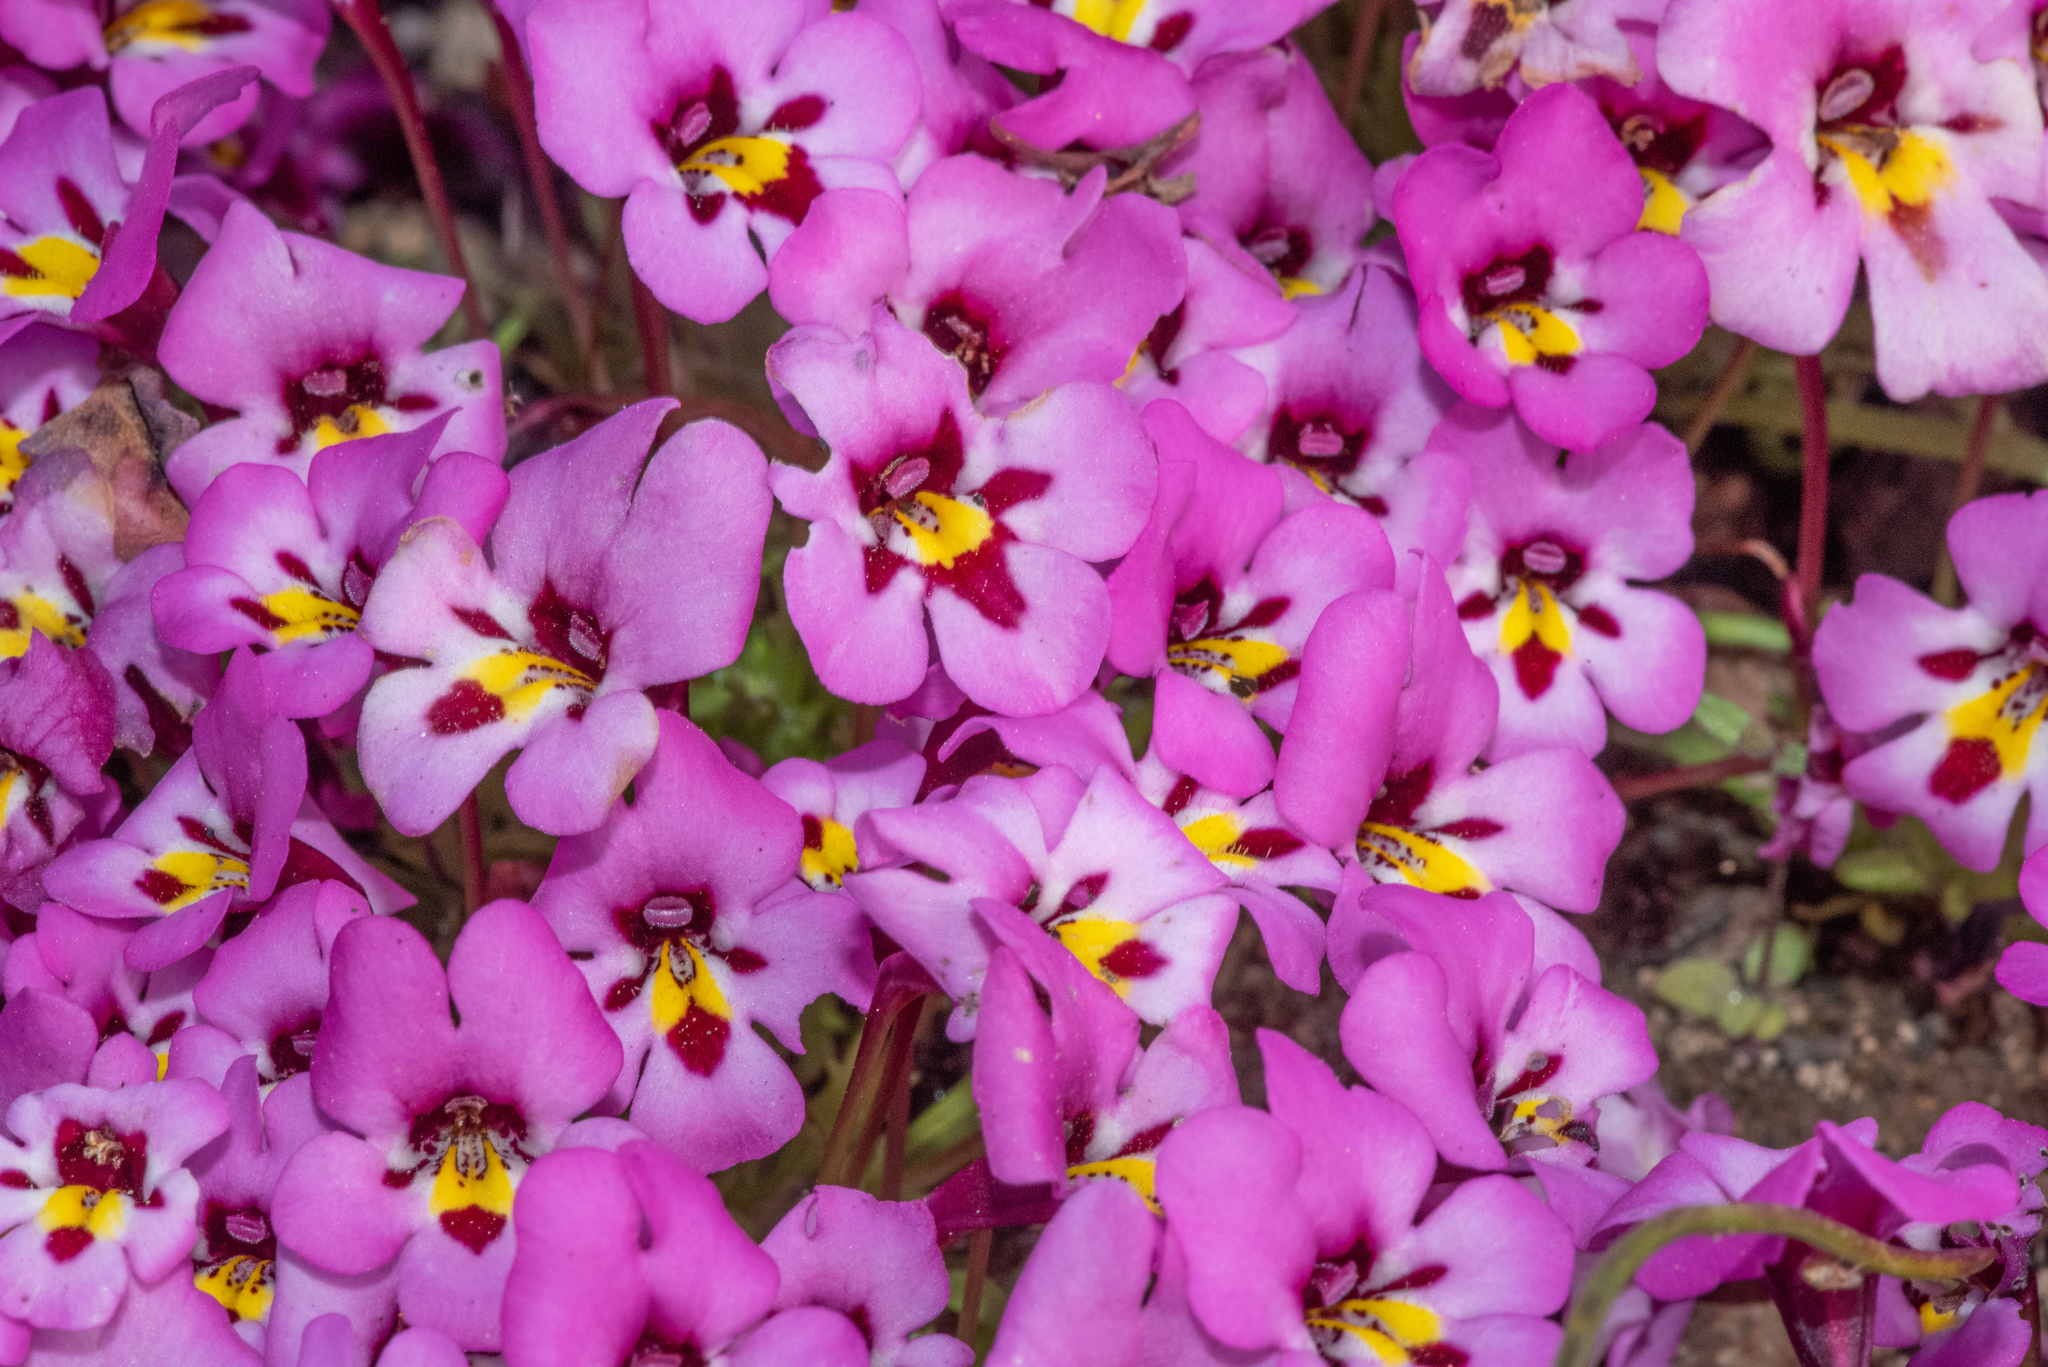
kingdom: Plantae
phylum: Tracheophyta
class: Magnoliopsida
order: Lamiales
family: Phrymaceae
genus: Diplacus
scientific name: Diplacus angustatus
